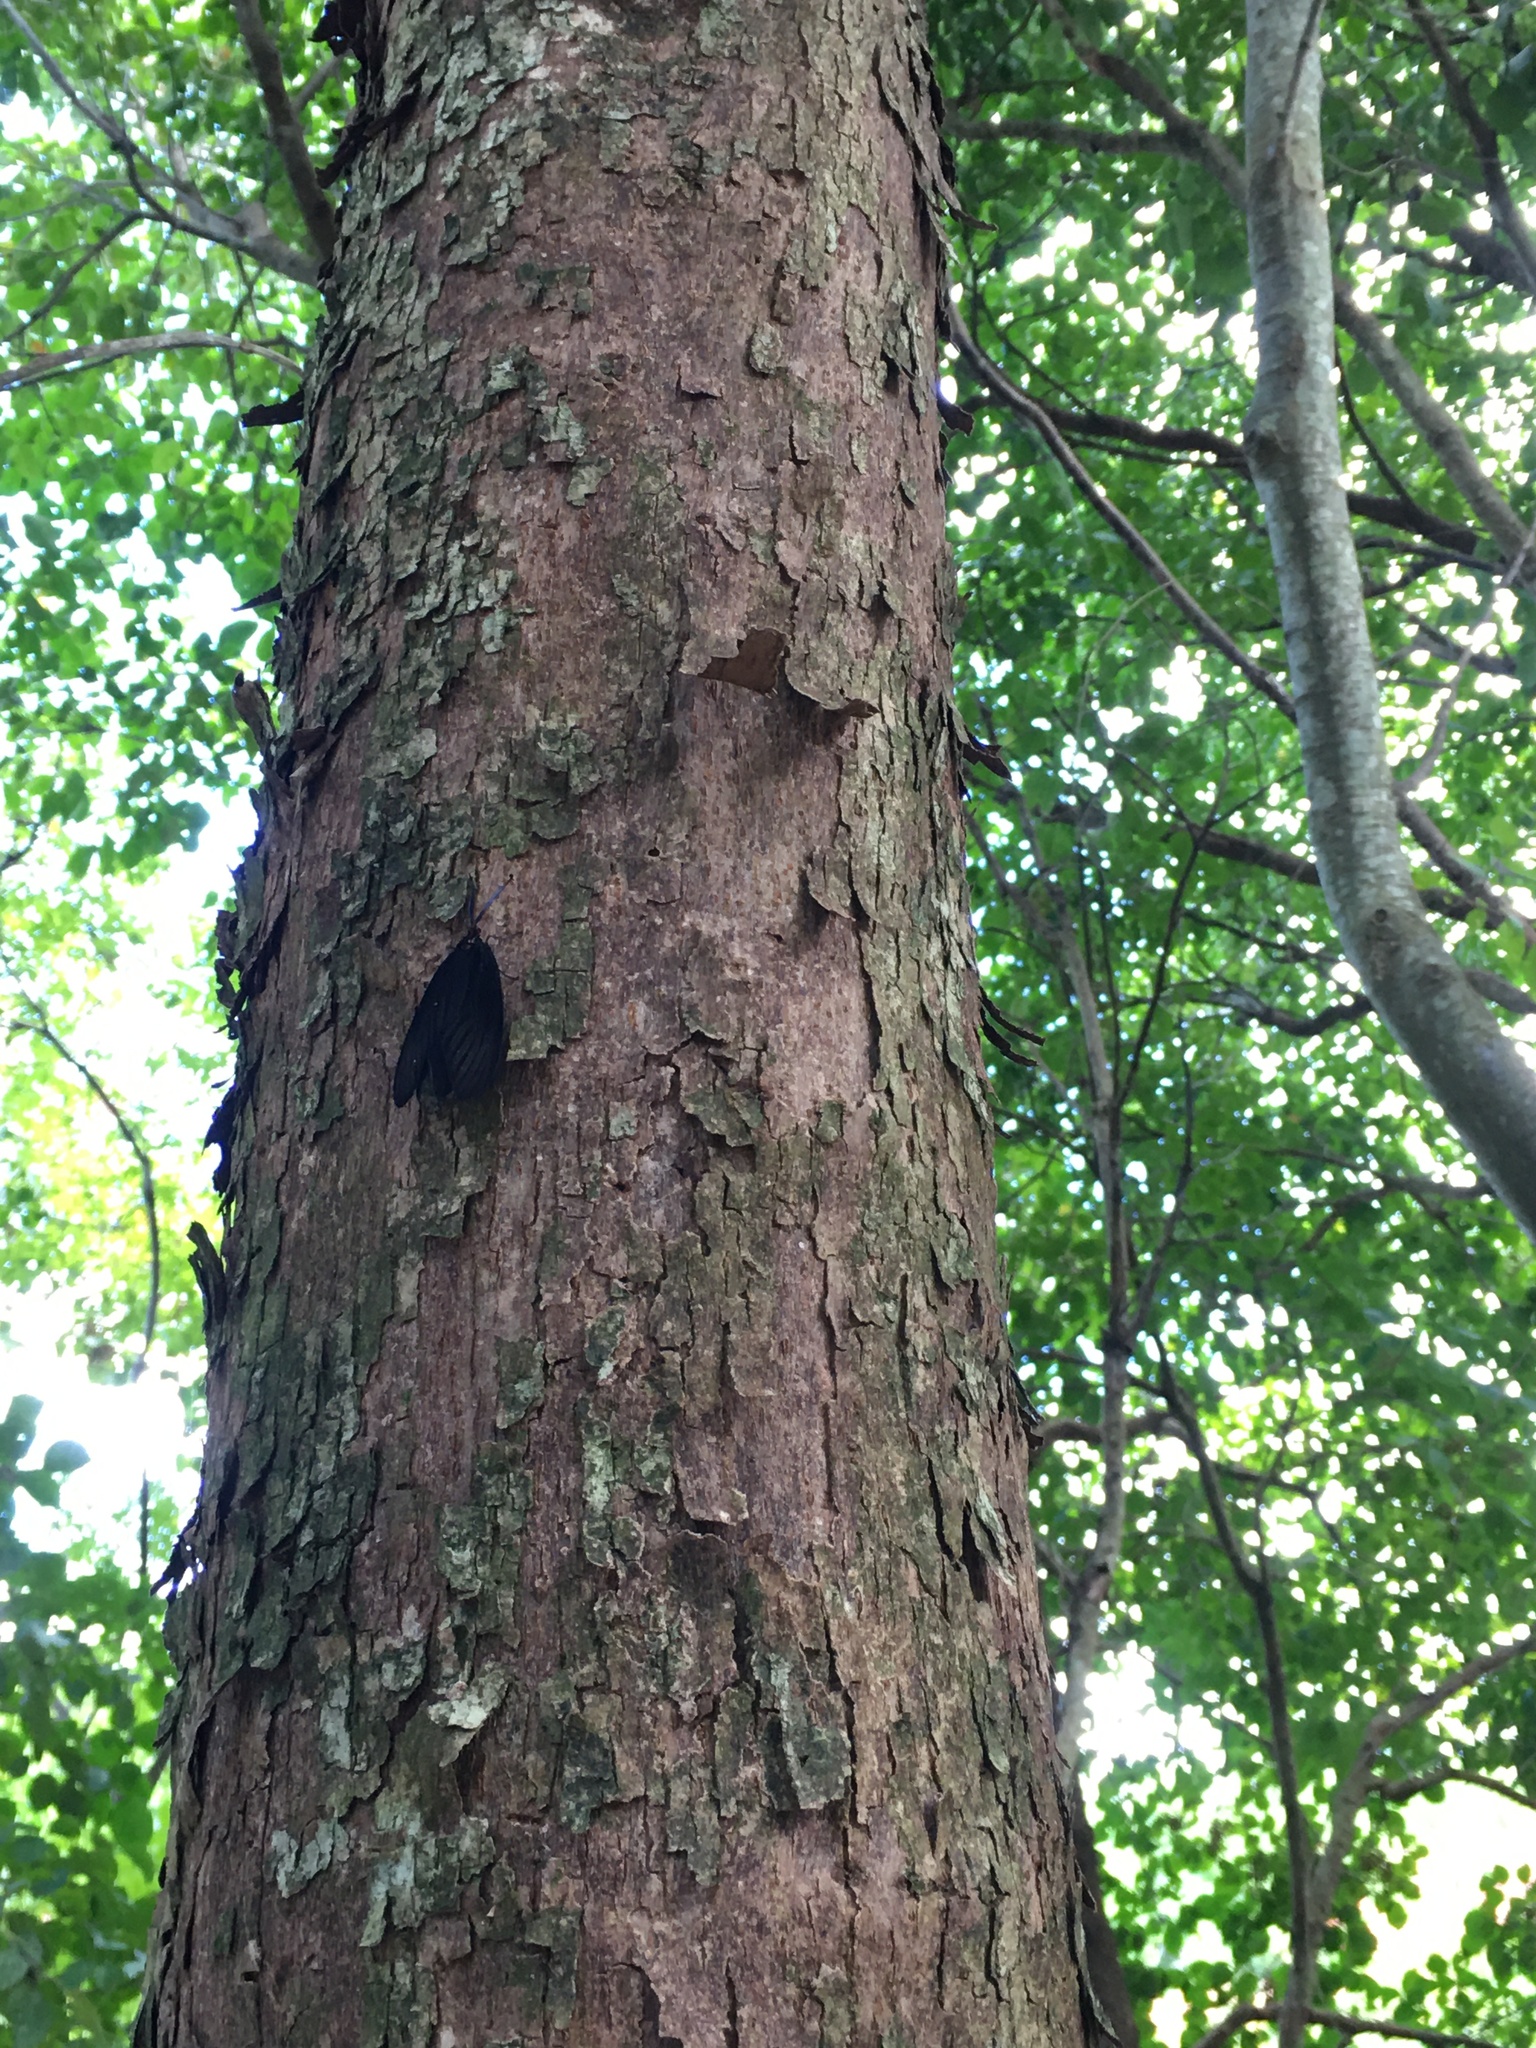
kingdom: Animalia
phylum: Arthropoda
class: Insecta
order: Lepidoptera
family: Zygaenidae
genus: Histia
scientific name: Histia flabellicornis
